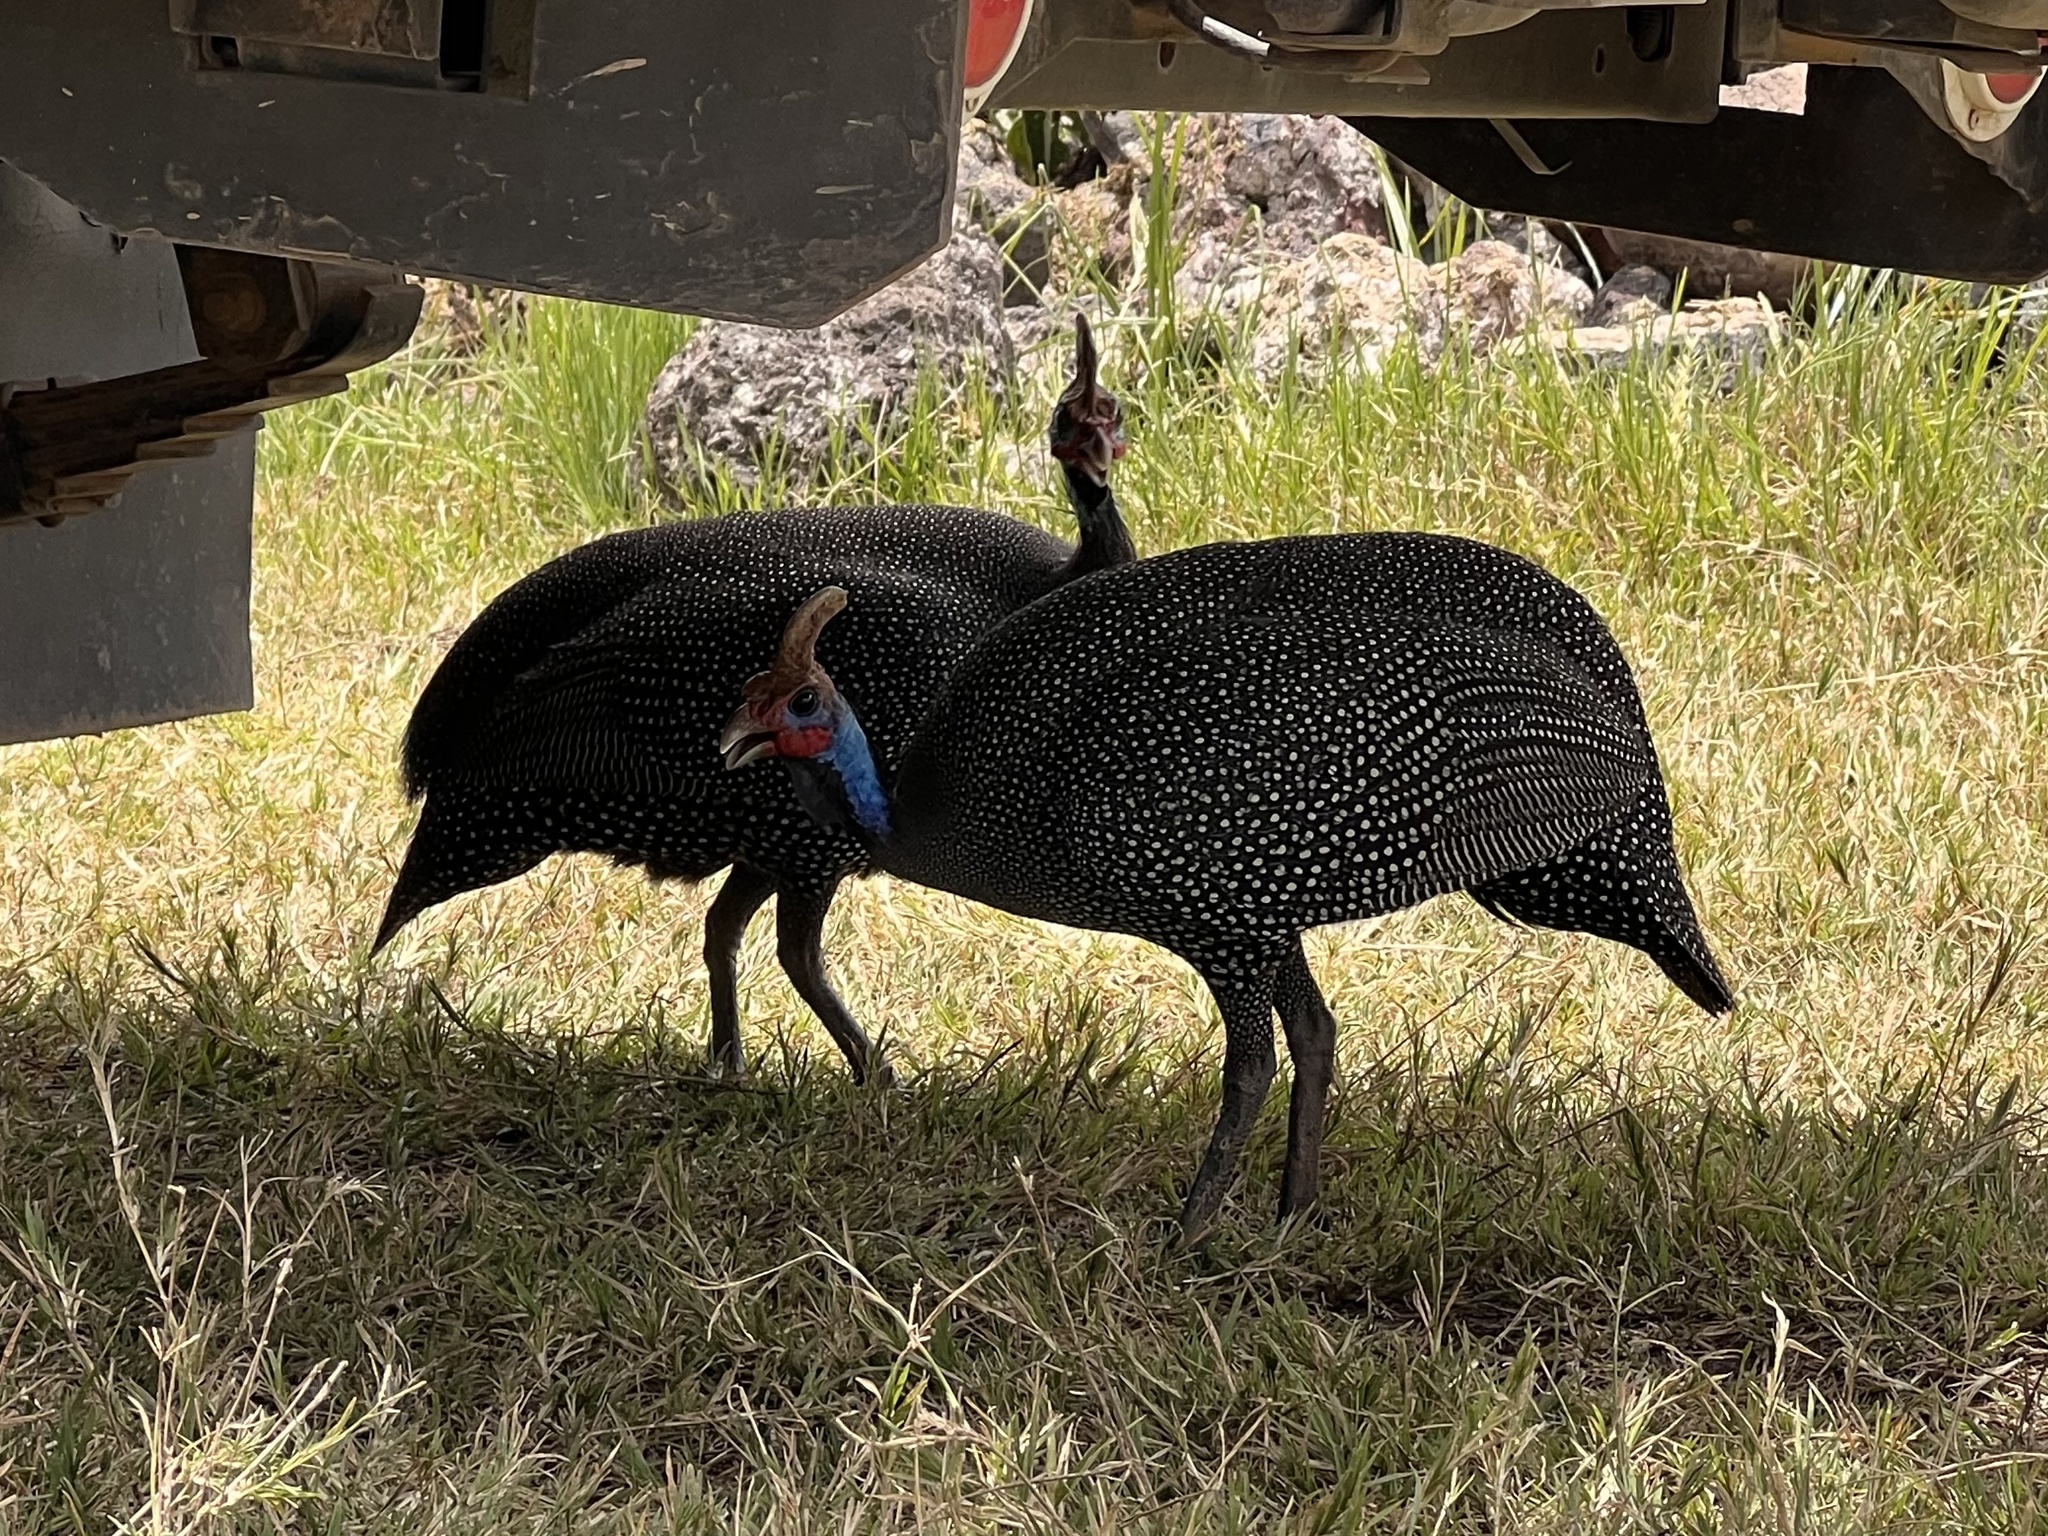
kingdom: Animalia
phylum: Chordata
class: Aves
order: Galliformes
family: Numididae
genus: Numida
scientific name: Numida meleagris
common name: Helmeted guineafowl
